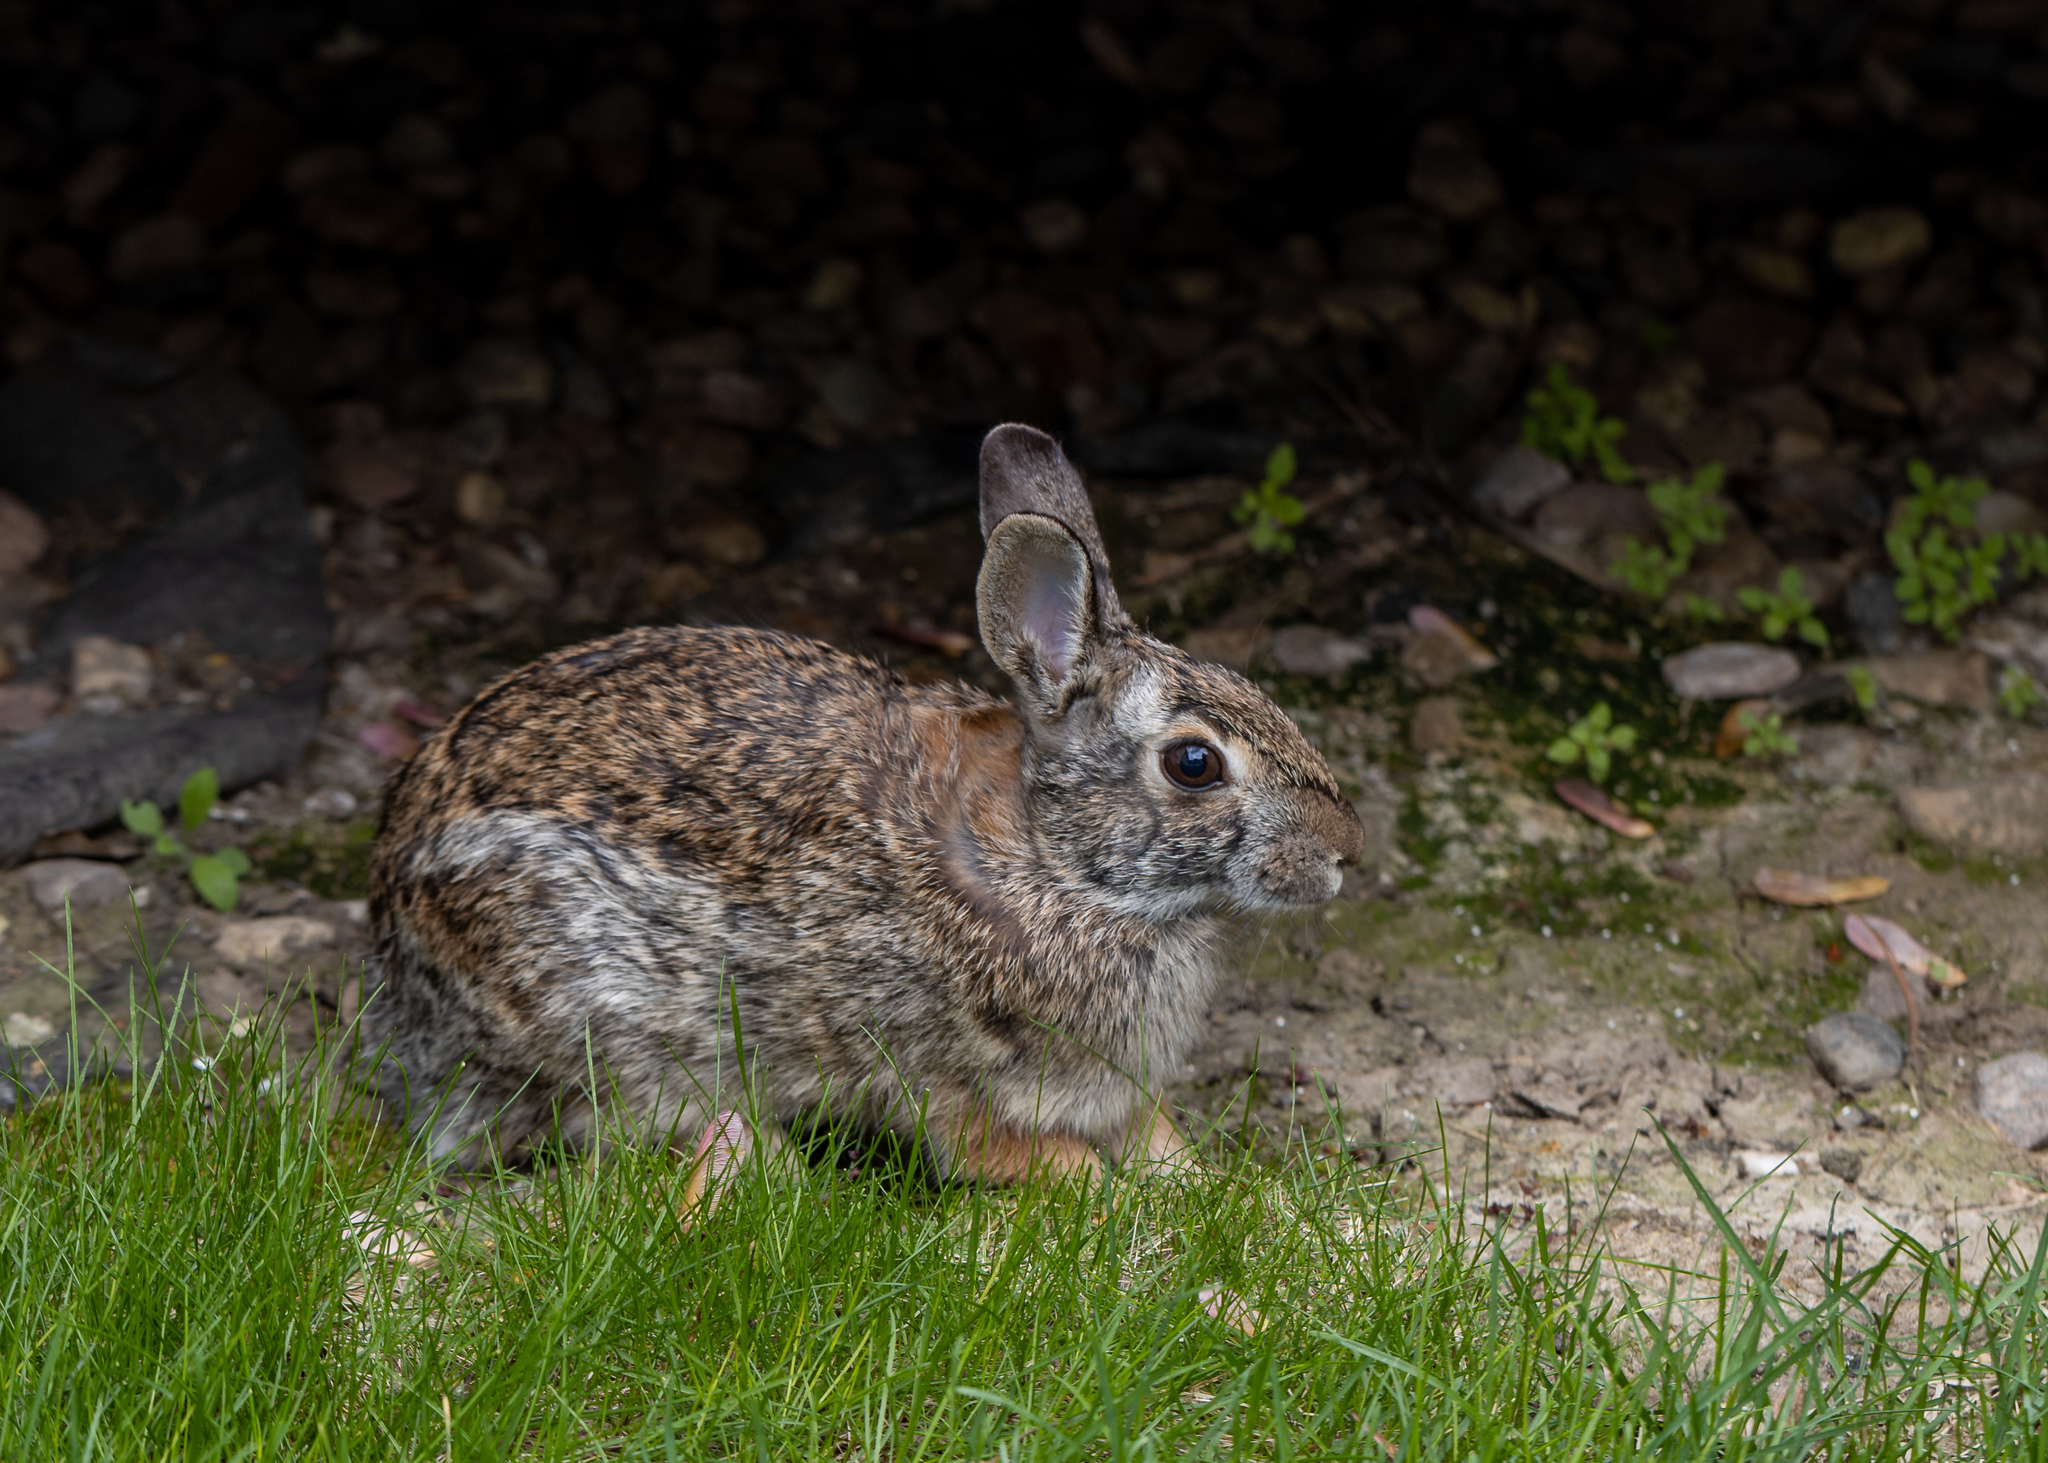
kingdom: Animalia
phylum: Chordata
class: Mammalia
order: Lagomorpha
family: Leporidae
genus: Sylvilagus
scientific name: Sylvilagus floridanus
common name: Eastern cottontail
